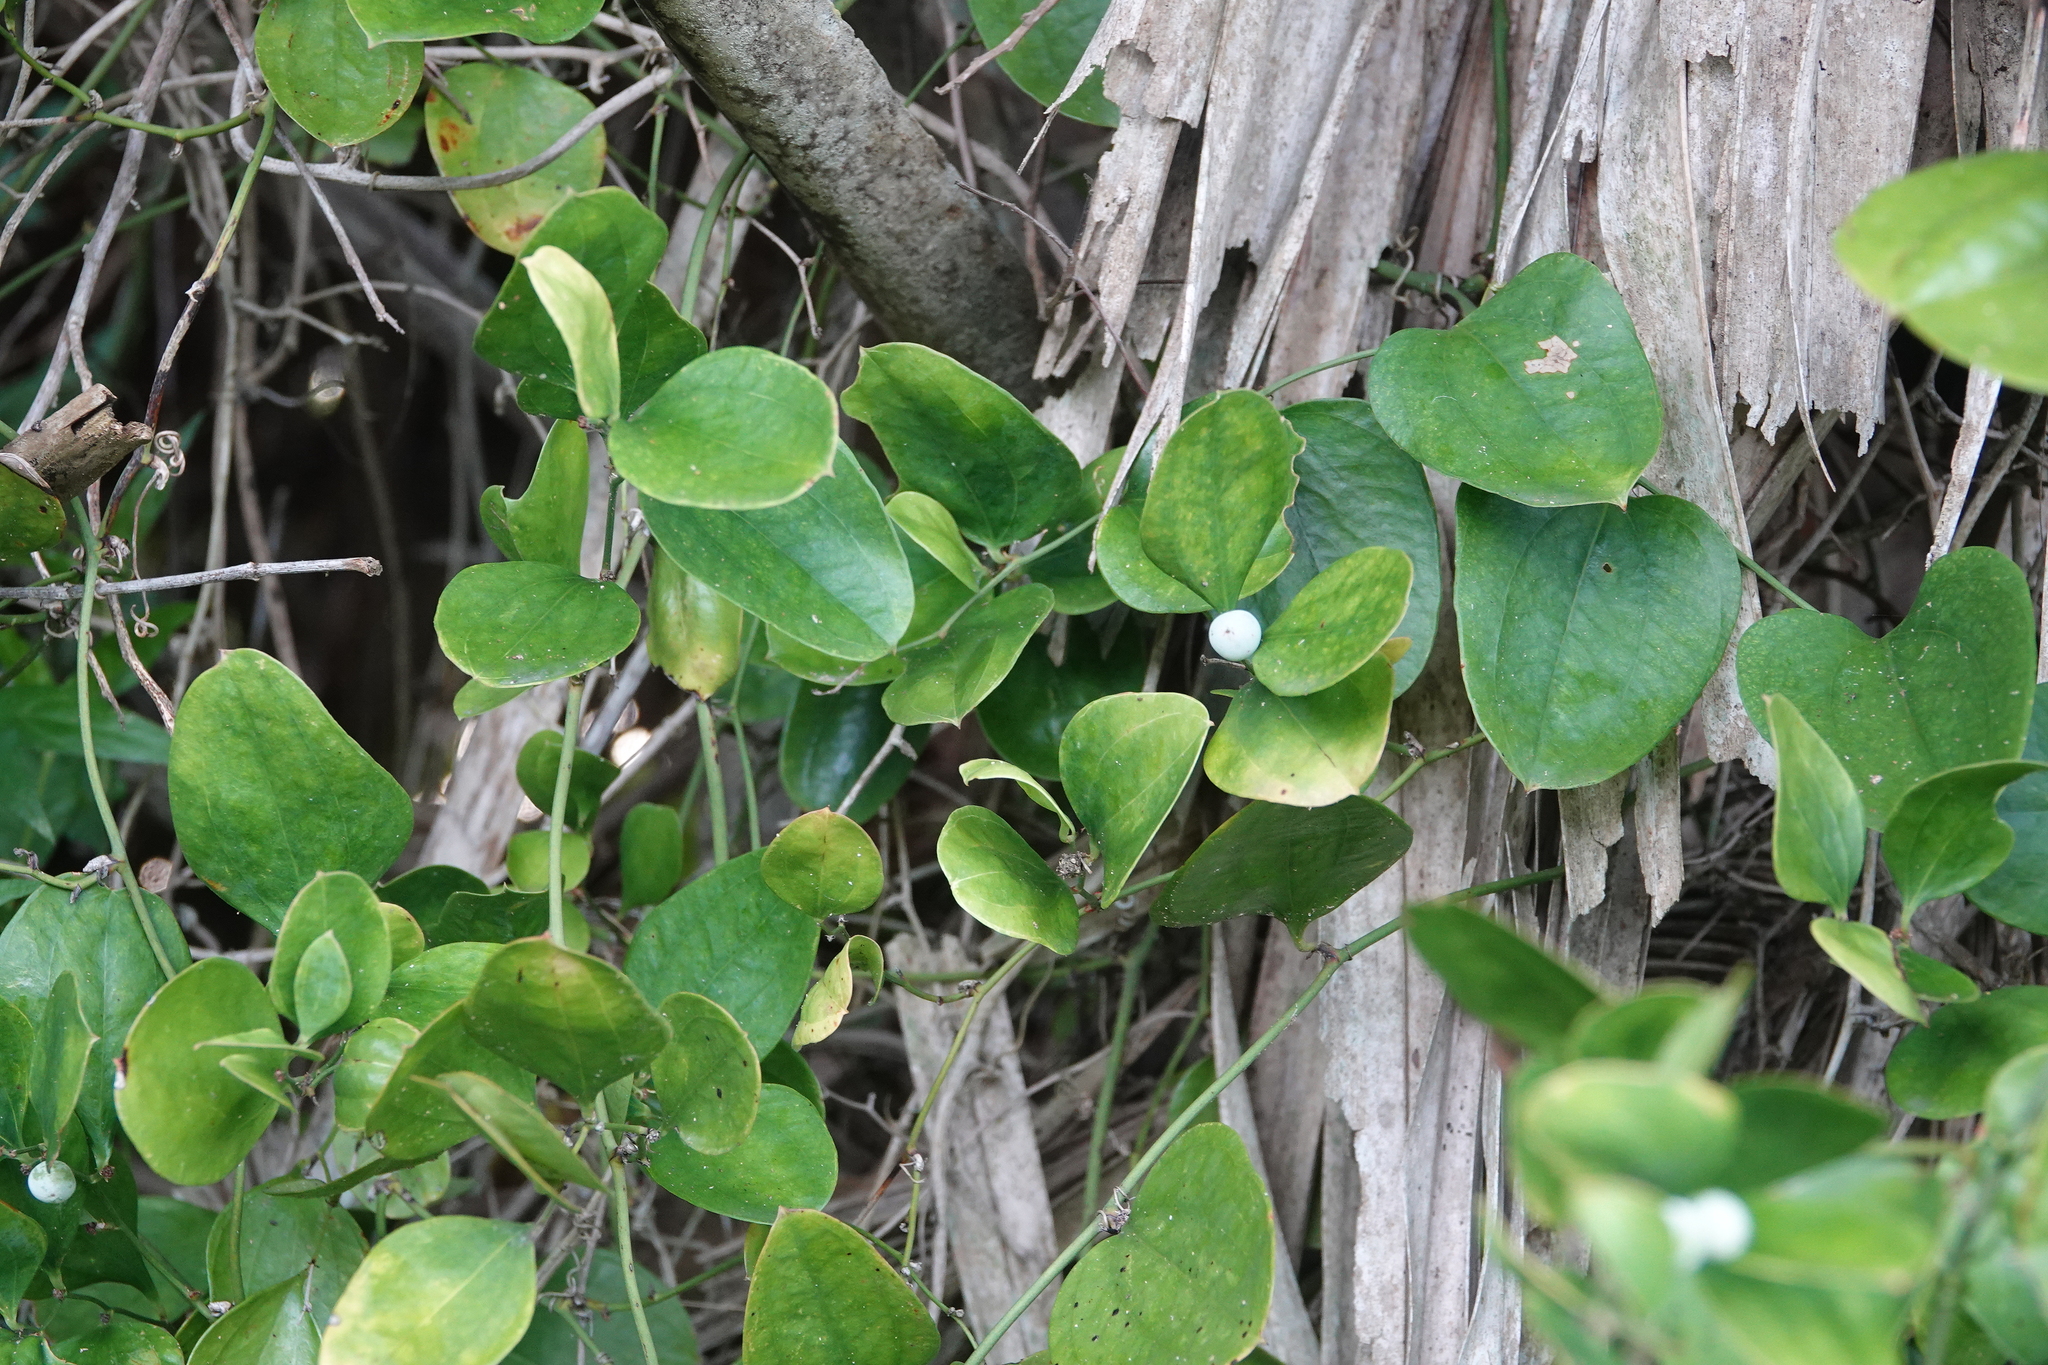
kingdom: Plantae
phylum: Tracheophyta
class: Liliopsida
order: Liliales
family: Smilacaceae
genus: Smilax
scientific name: Smilax auriculata
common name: Wild bamboo
